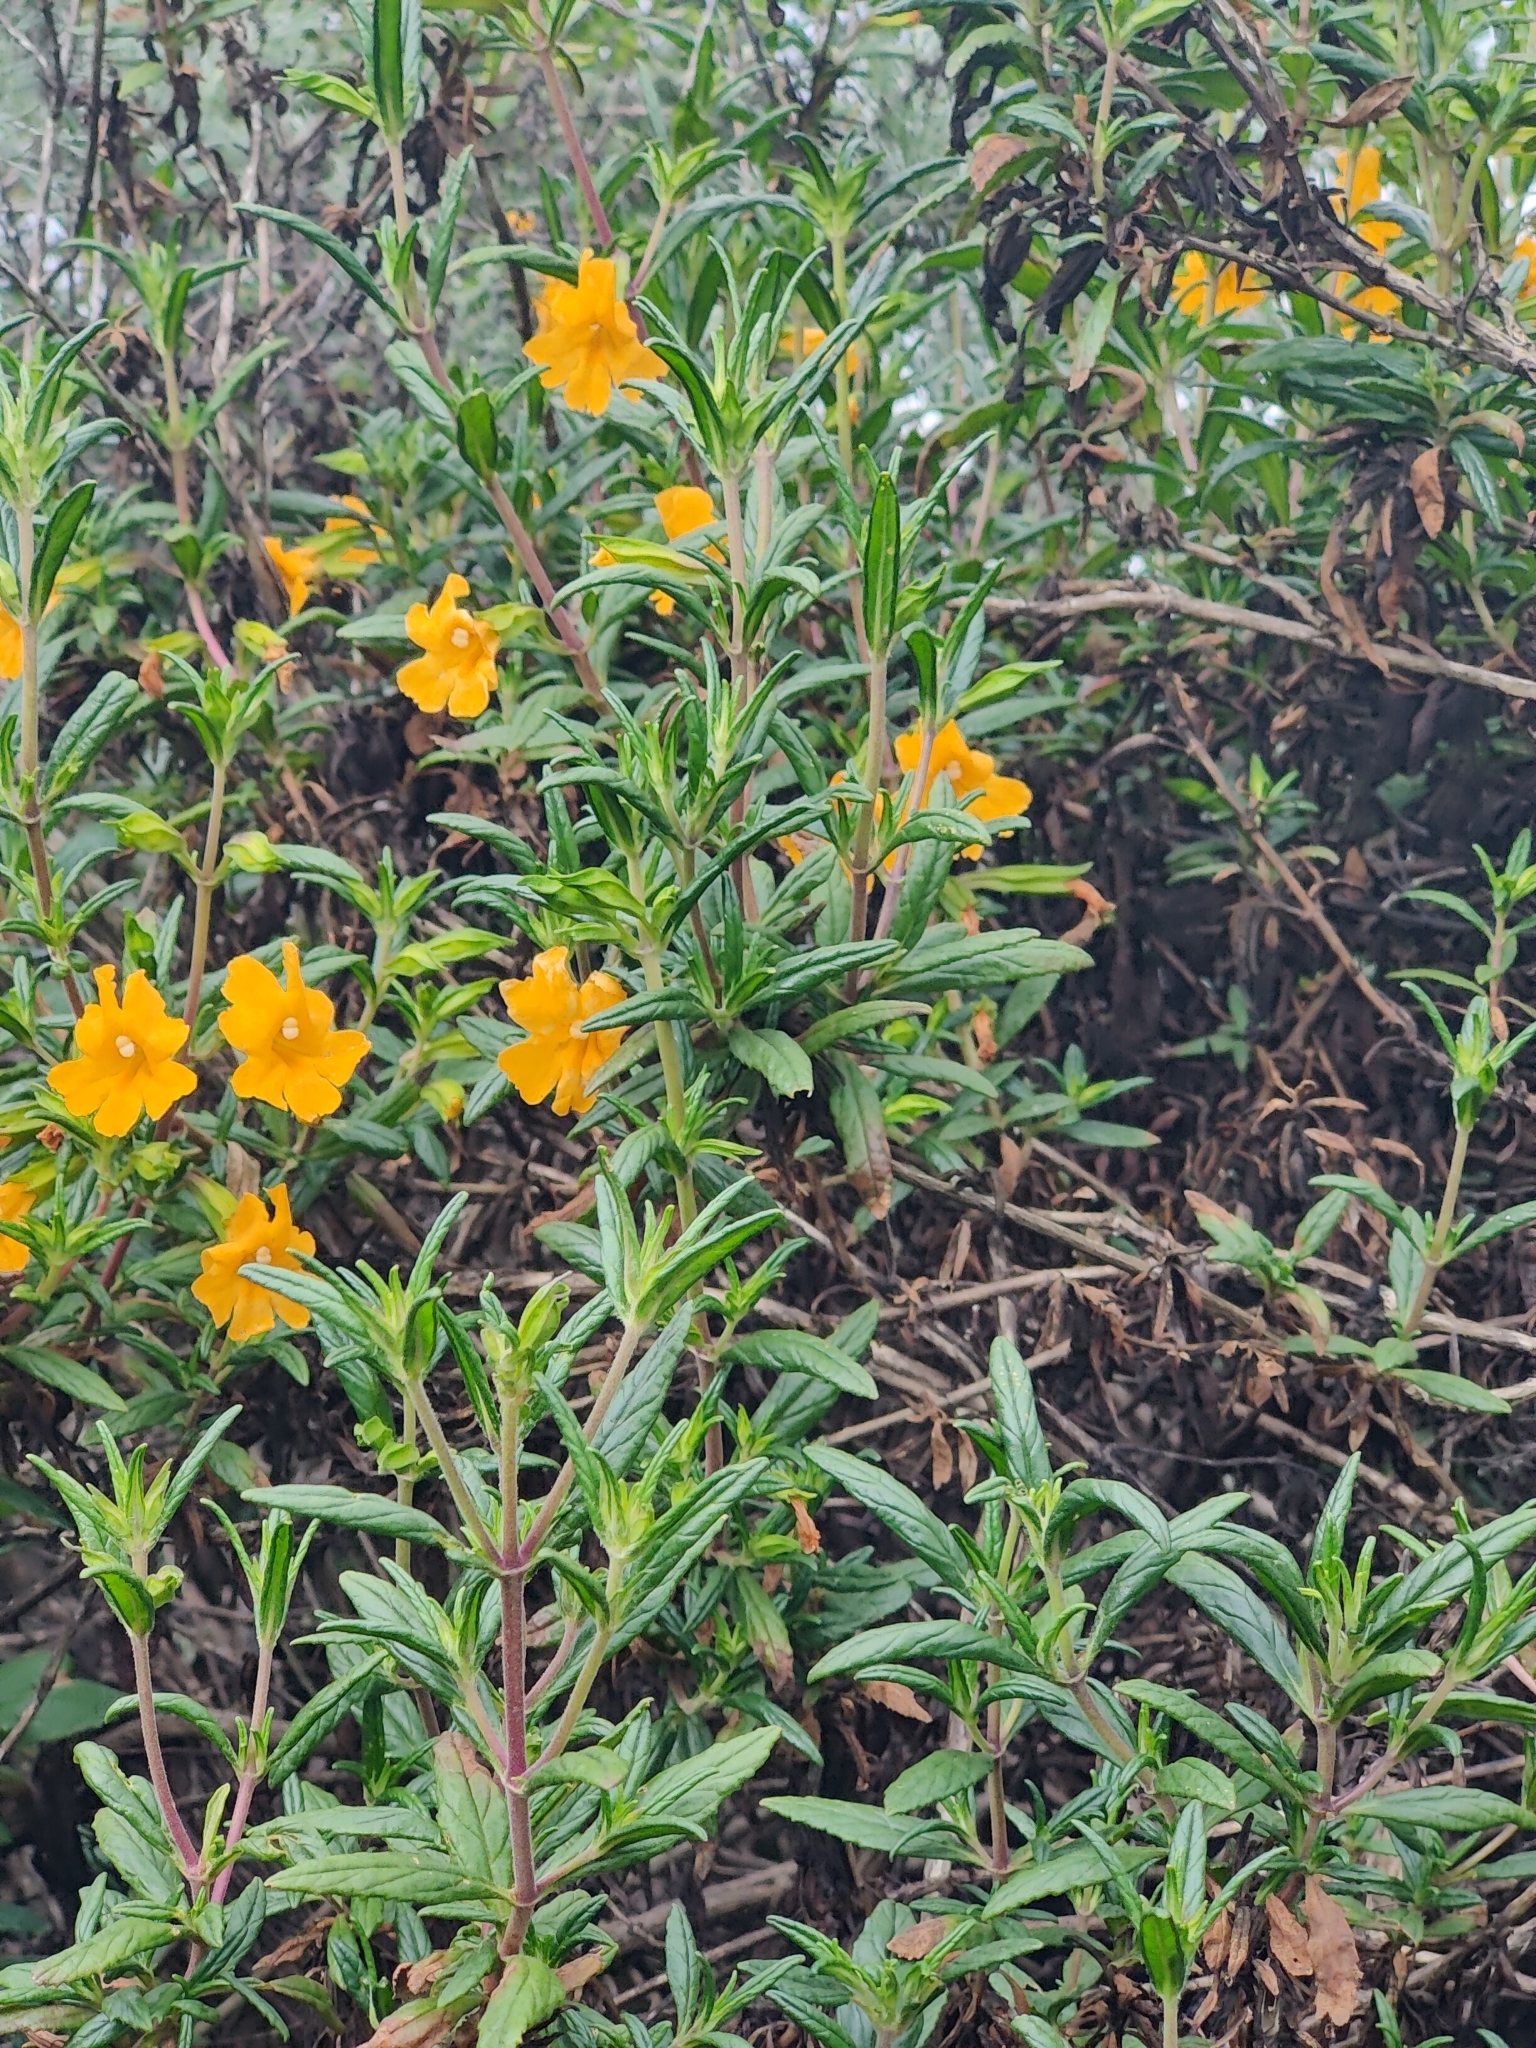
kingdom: Plantae
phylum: Tracheophyta
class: Magnoliopsida
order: Lamiales
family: Phrymaceae
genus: Diplacus
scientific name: Diplacus aurantiacus
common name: Bush monkey-flower
